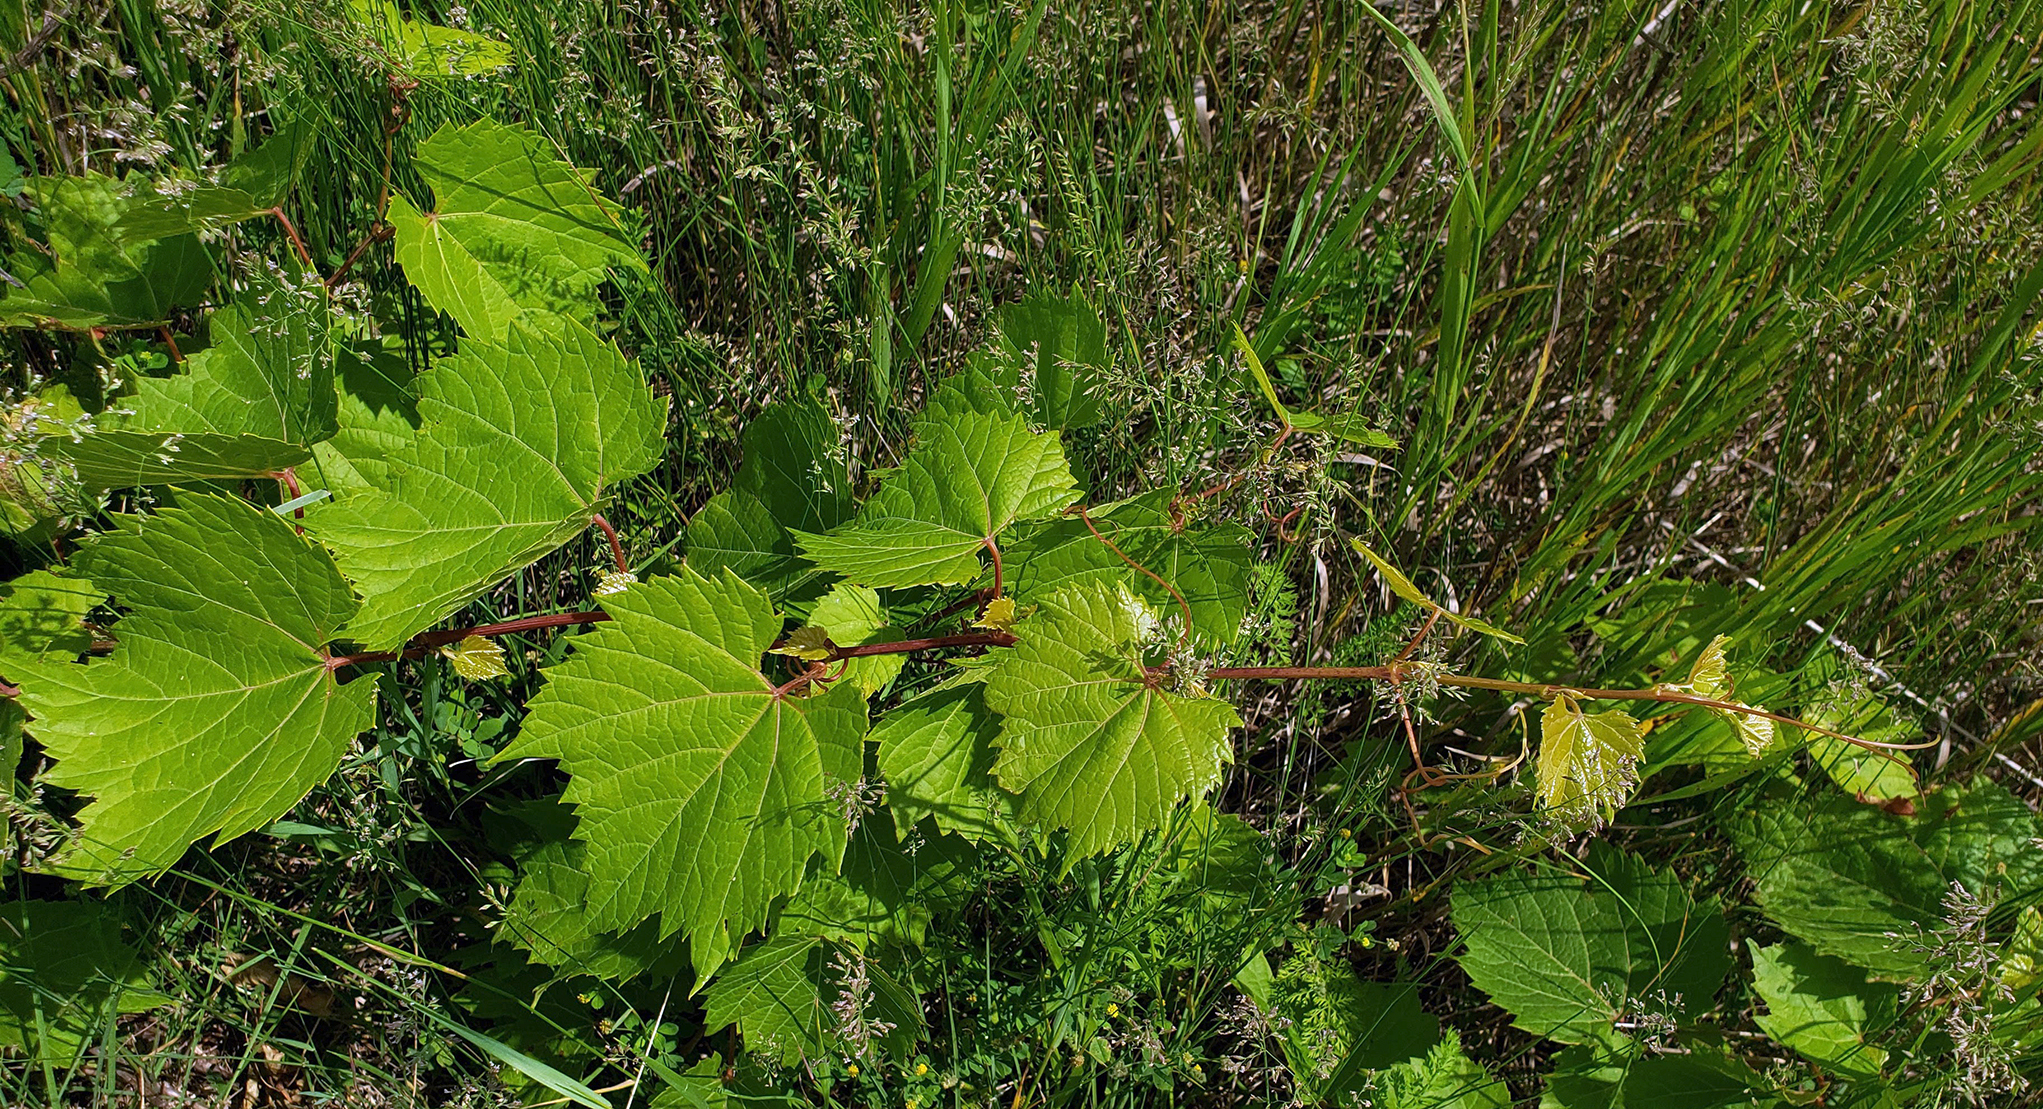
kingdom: Plantae
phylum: Tracheophyta
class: Magnoliopsida
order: Vitales
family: Vitaceae
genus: Vitis
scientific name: Vitis riparia
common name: Frost grape
